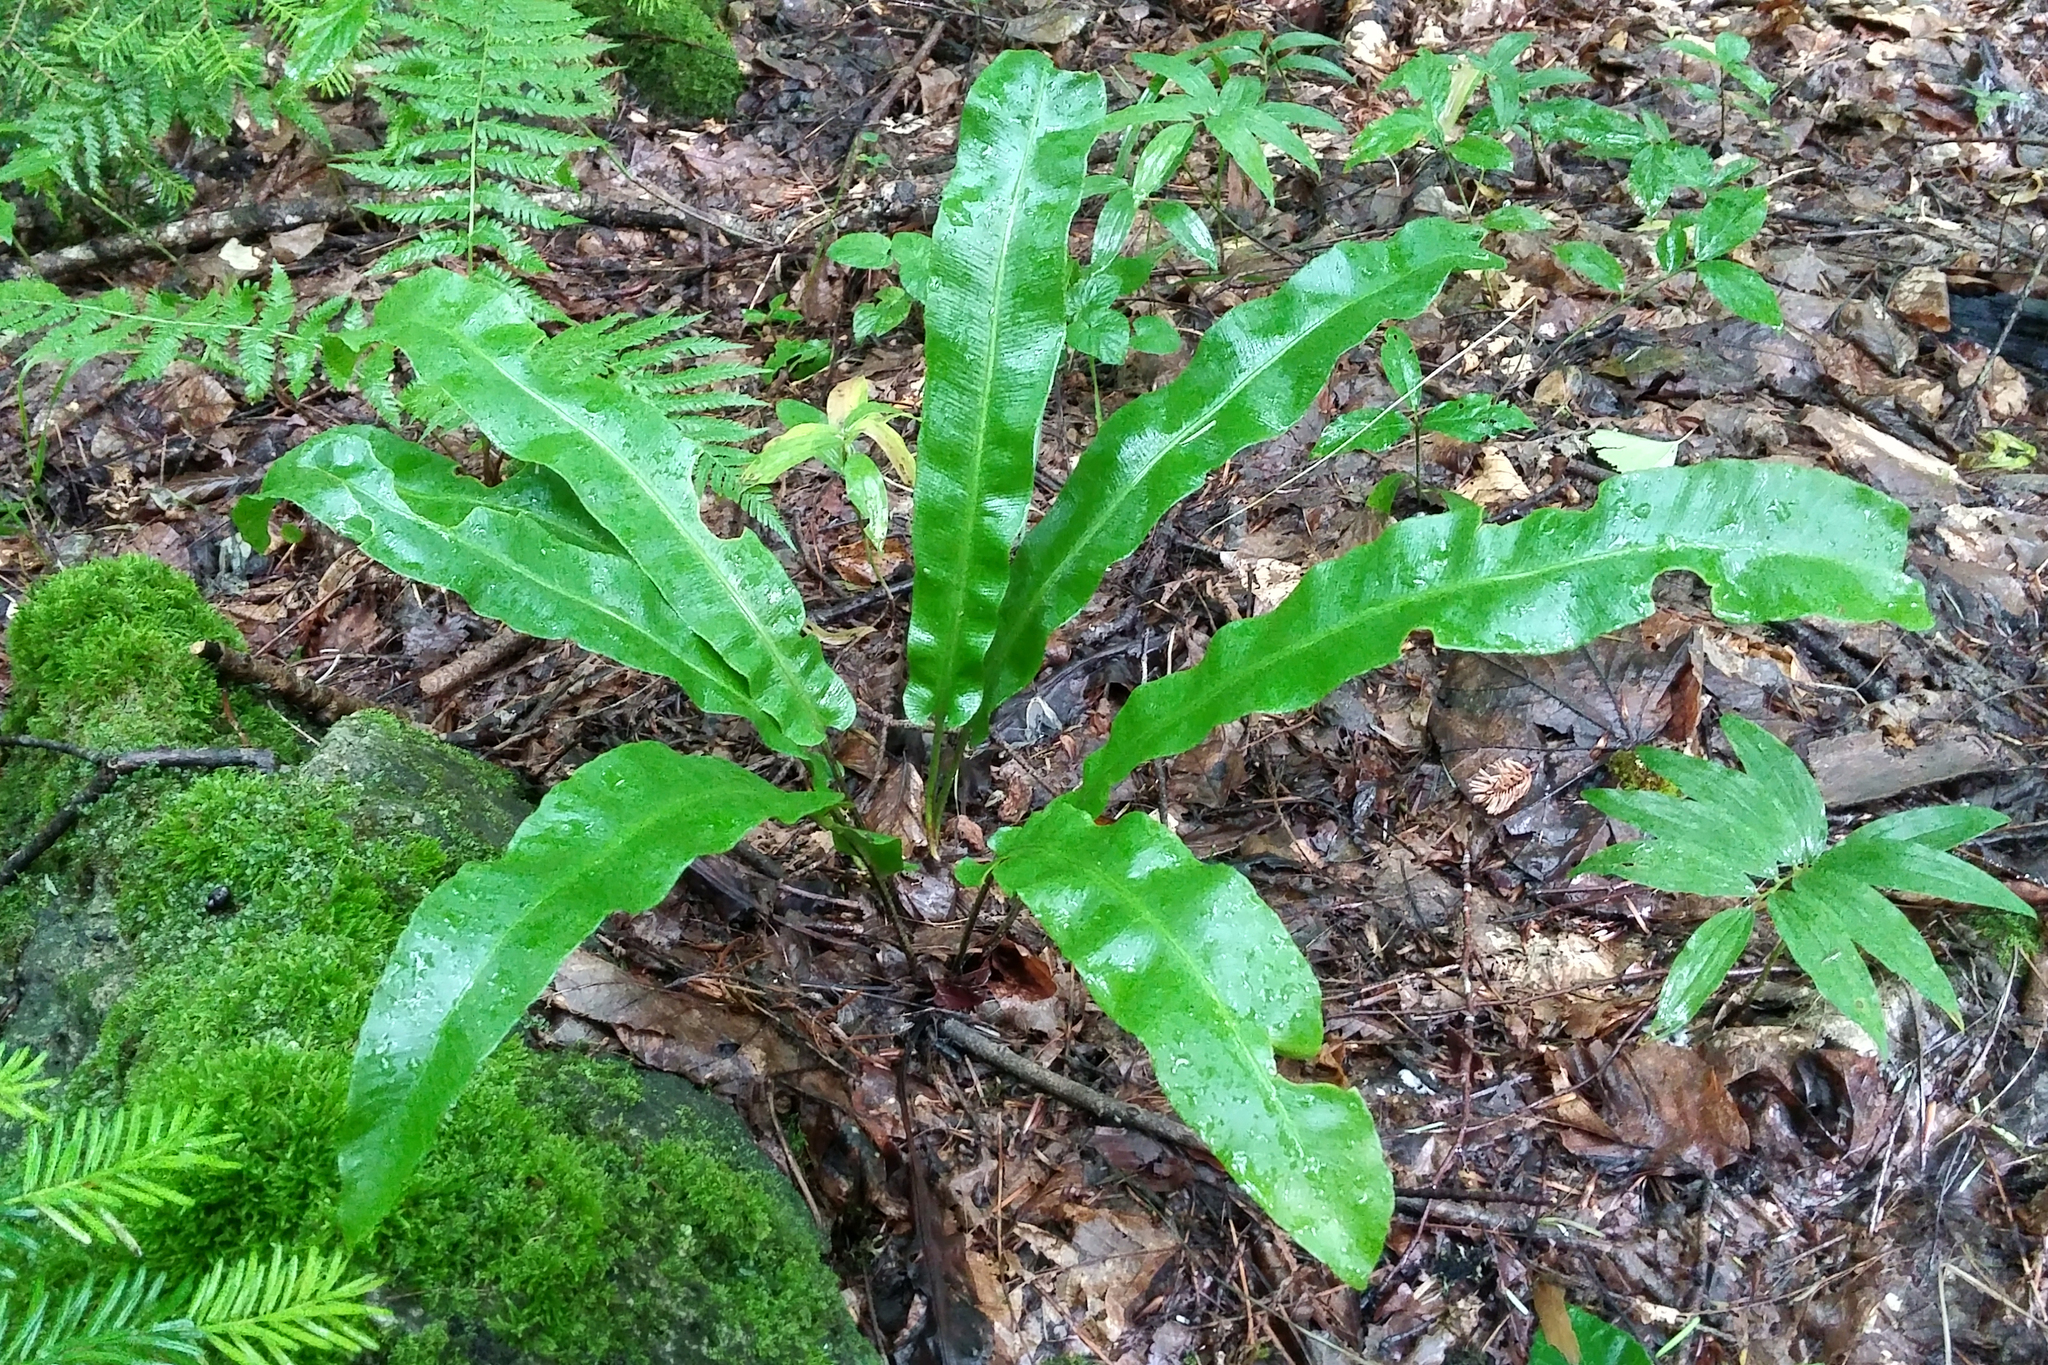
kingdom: Plantae
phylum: Tracheophyta
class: Polypodiopsida
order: Polypodiales
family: Aspleniaceae
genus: Asplenium
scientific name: Asplenium scolopendrium
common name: Hart's-tongue fern
